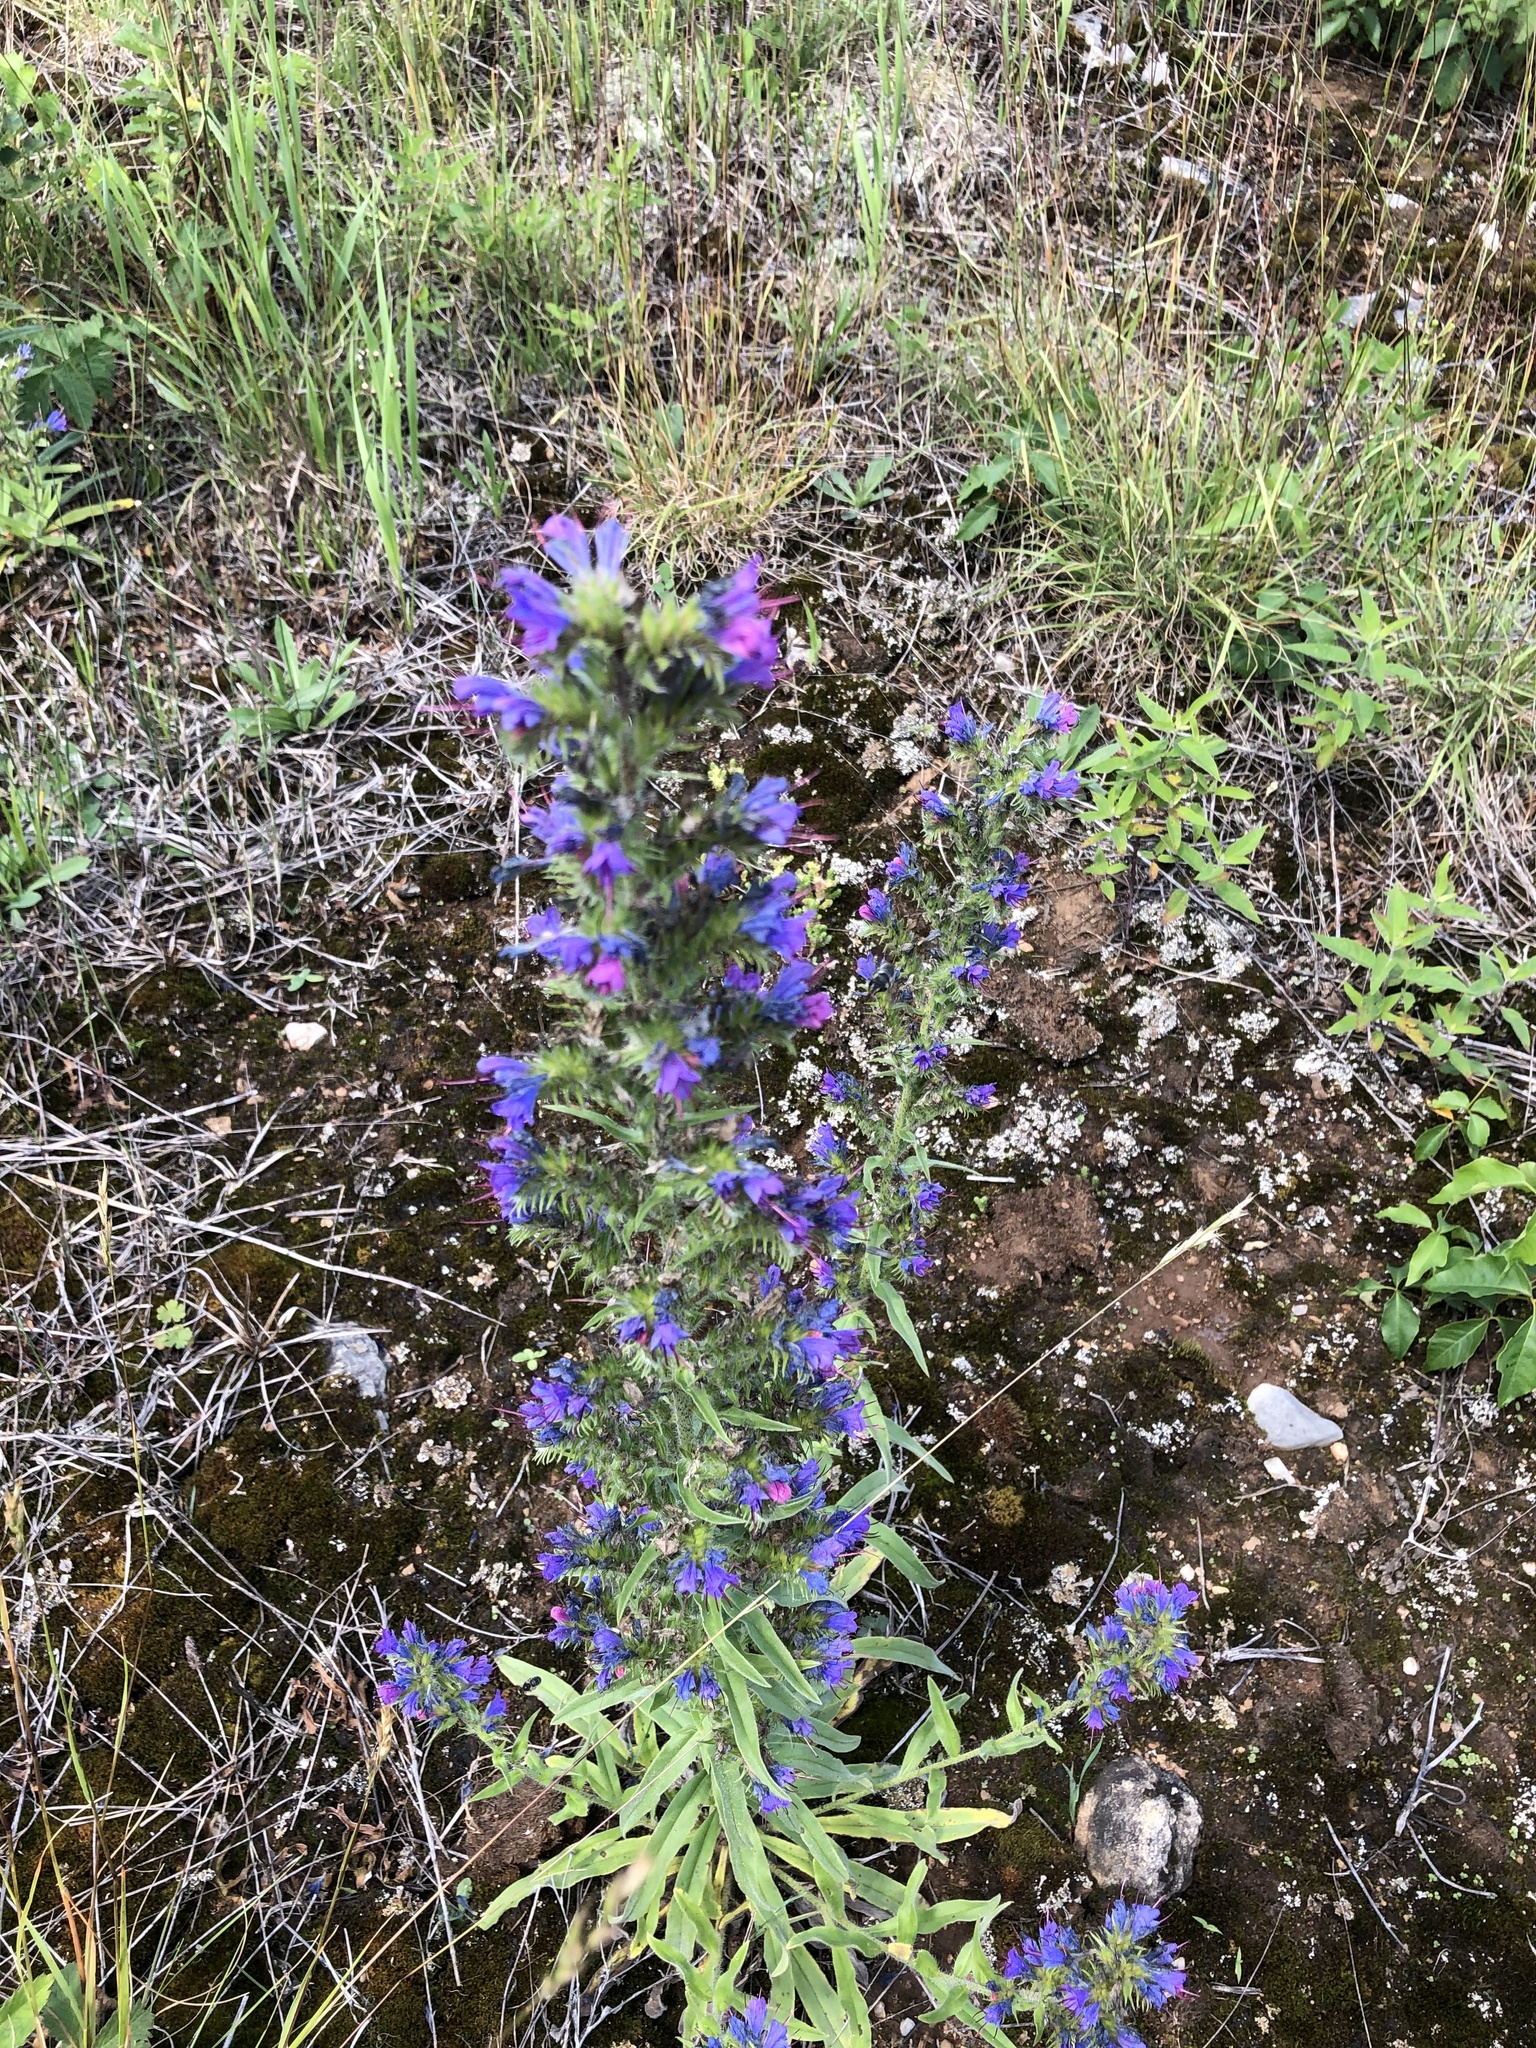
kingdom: Plantae
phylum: Tracheophyta
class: Magnoliopsida
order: Boraginales
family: Boraginaceae
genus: Echium
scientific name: Echium vulgare
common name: Common viper's bugloss
